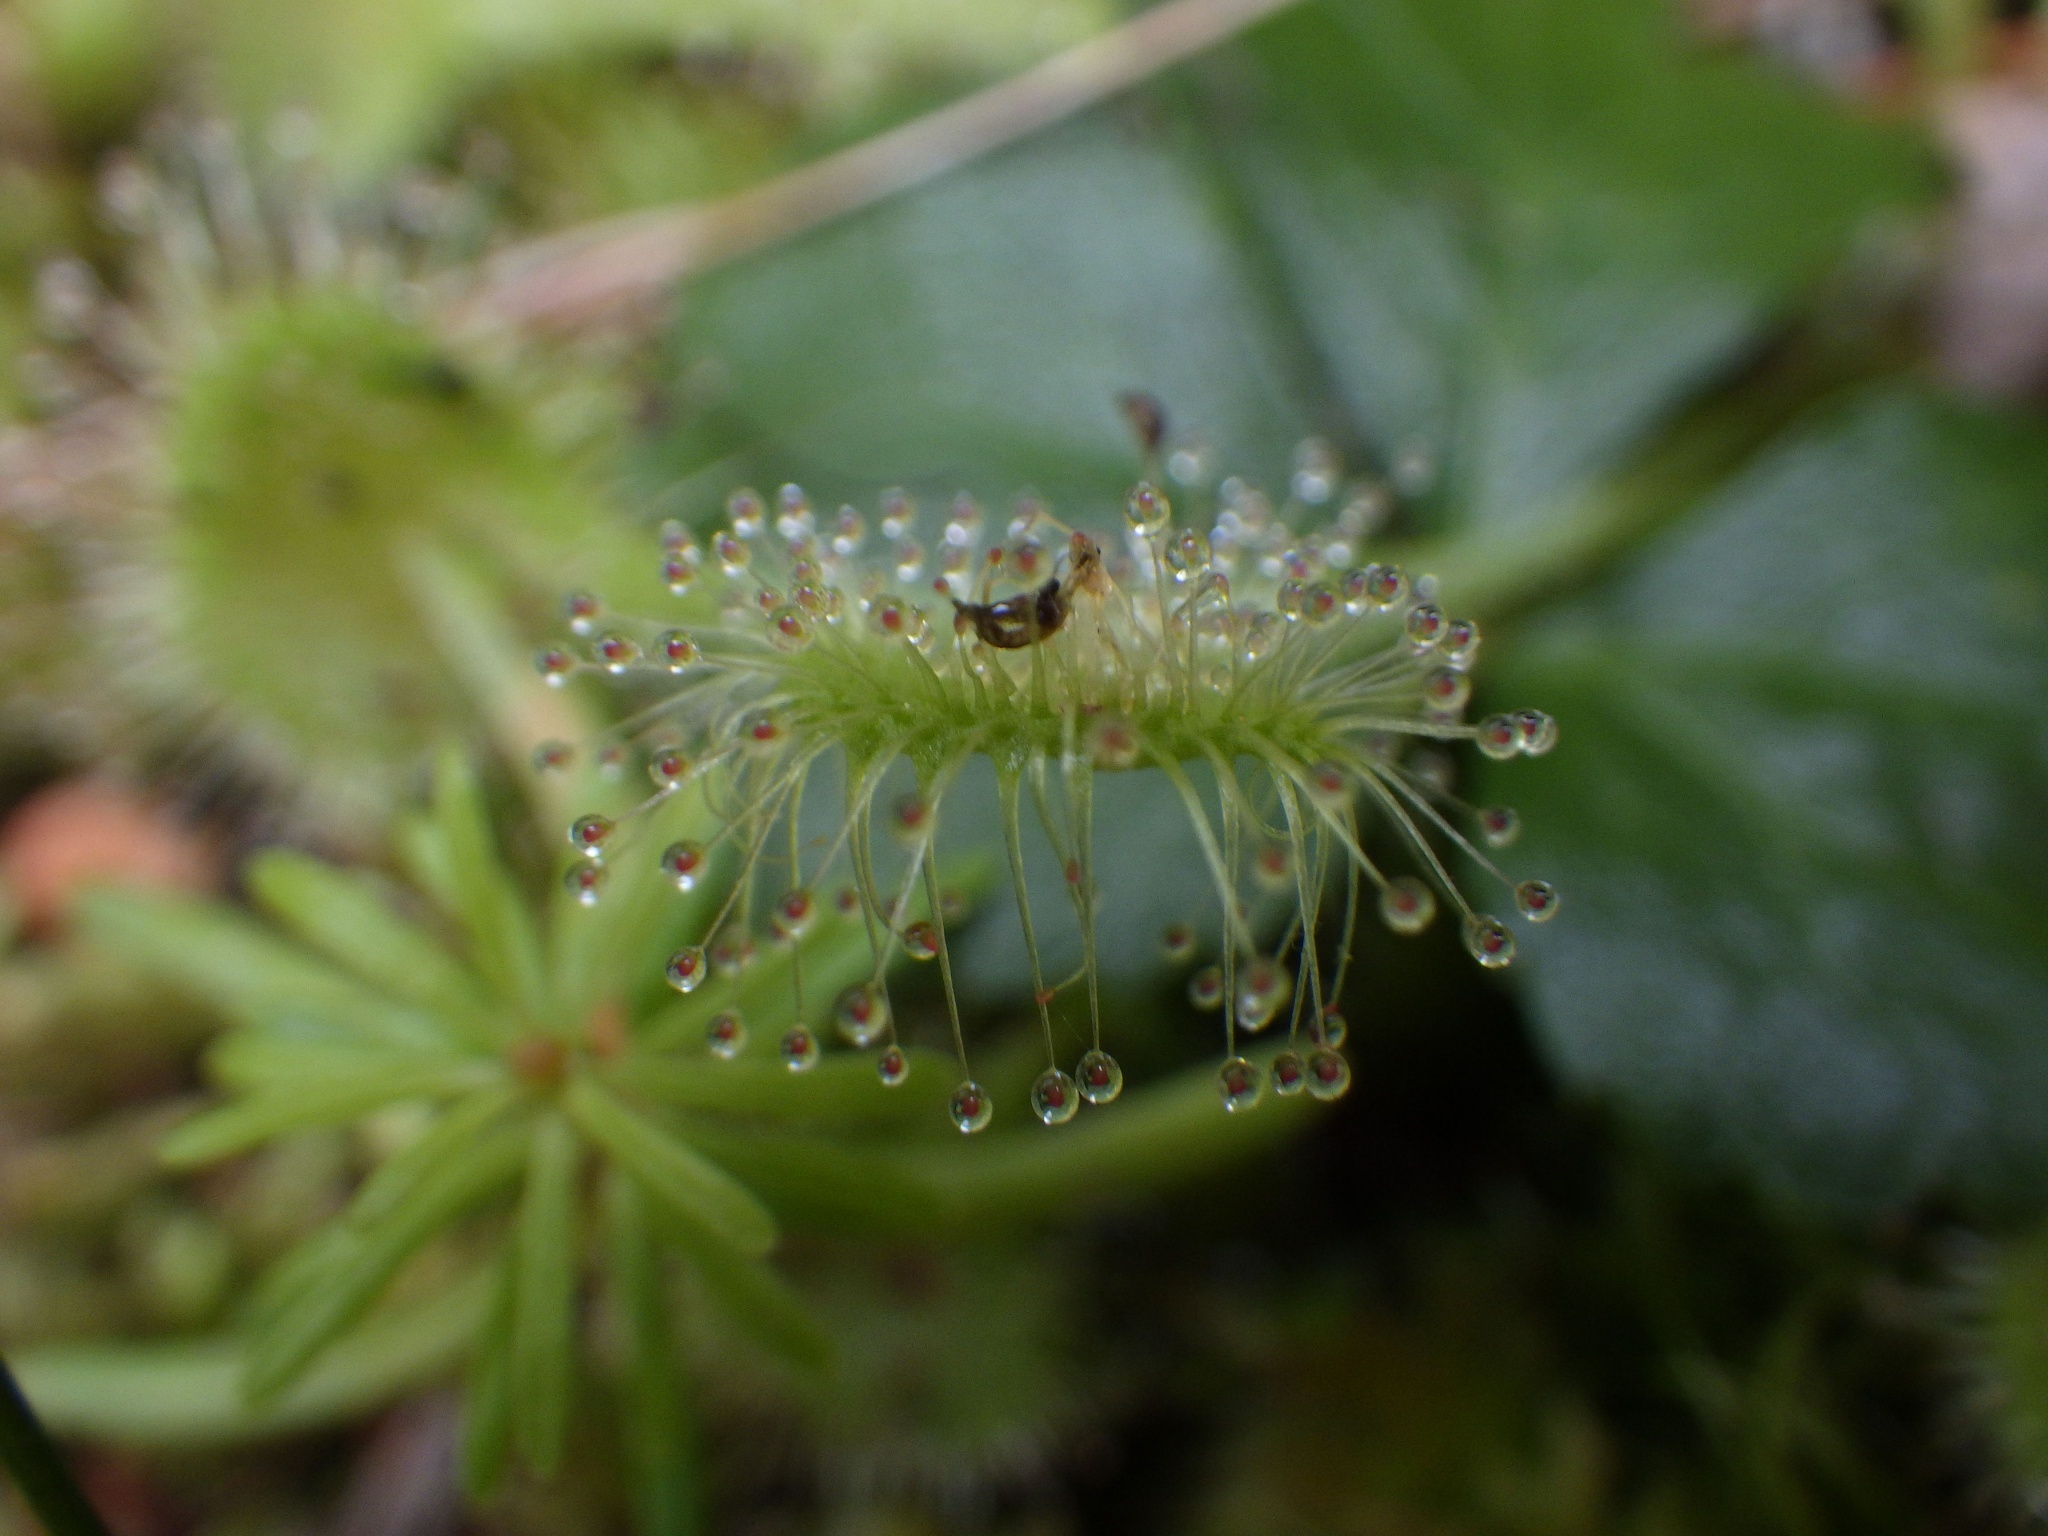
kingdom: Plantae
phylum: Tracheophyta
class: Magnoliopsida
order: Caryophyllales
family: Droseraceae
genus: Drosera
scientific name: Drosera rotundifolia
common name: Round-leaved sundew
